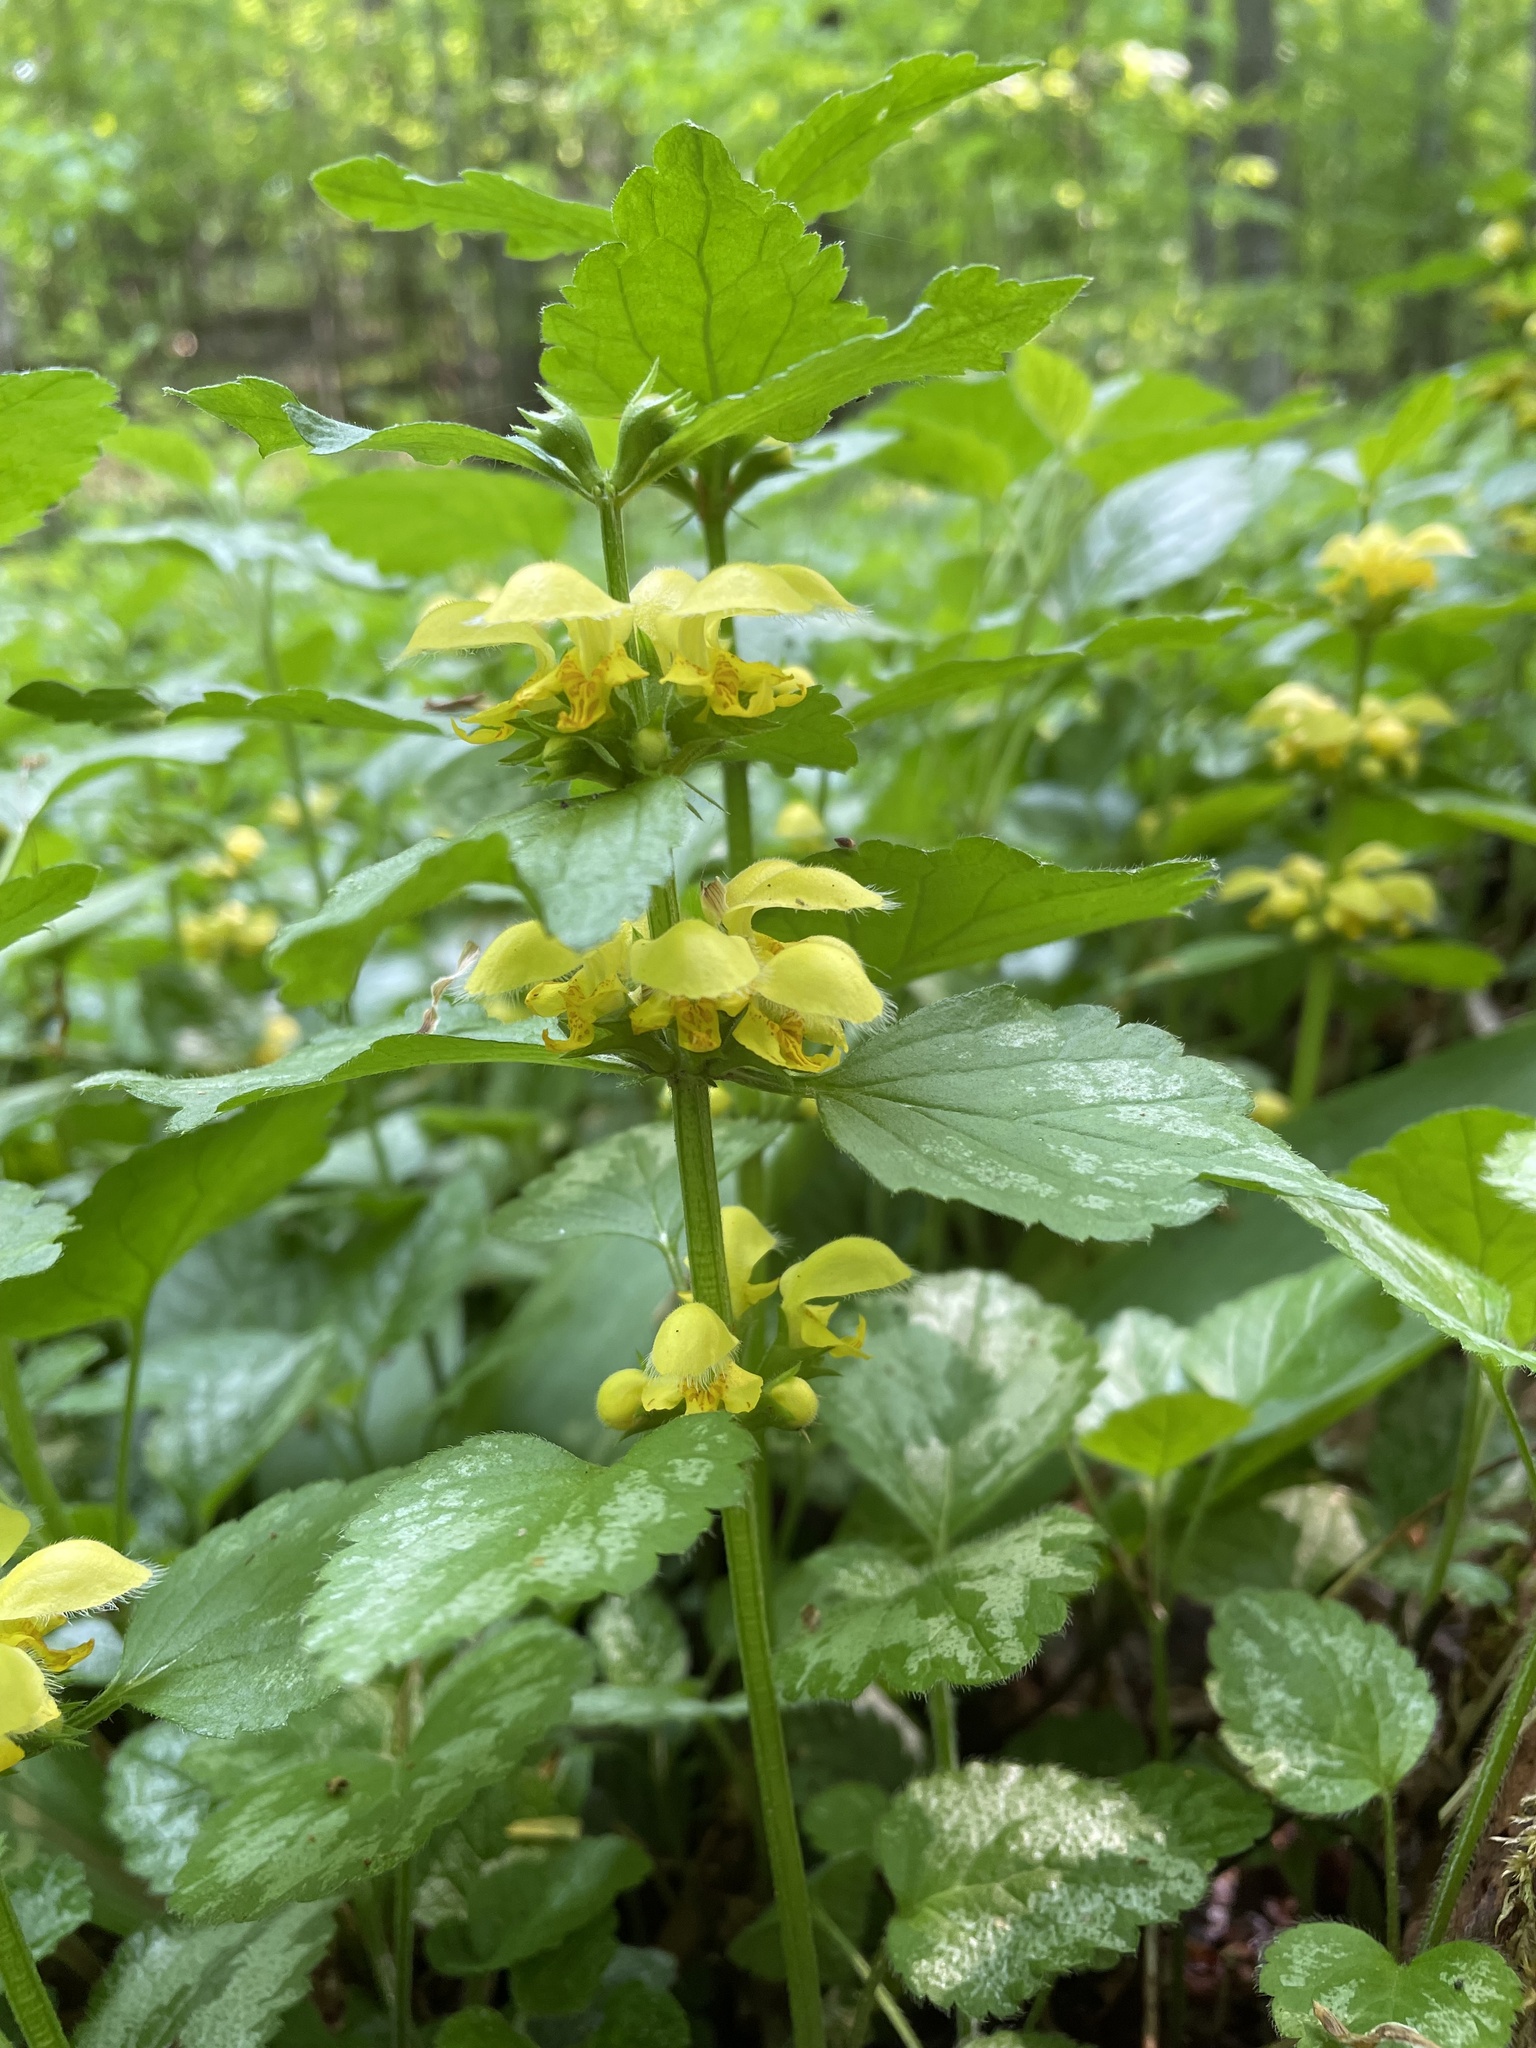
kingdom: Plantae
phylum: Tracheophyta
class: Magnoliopsida
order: Lamiales
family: Lamiaceae
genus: Lamium
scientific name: Lamium galeobdolon
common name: Yellow archangel
